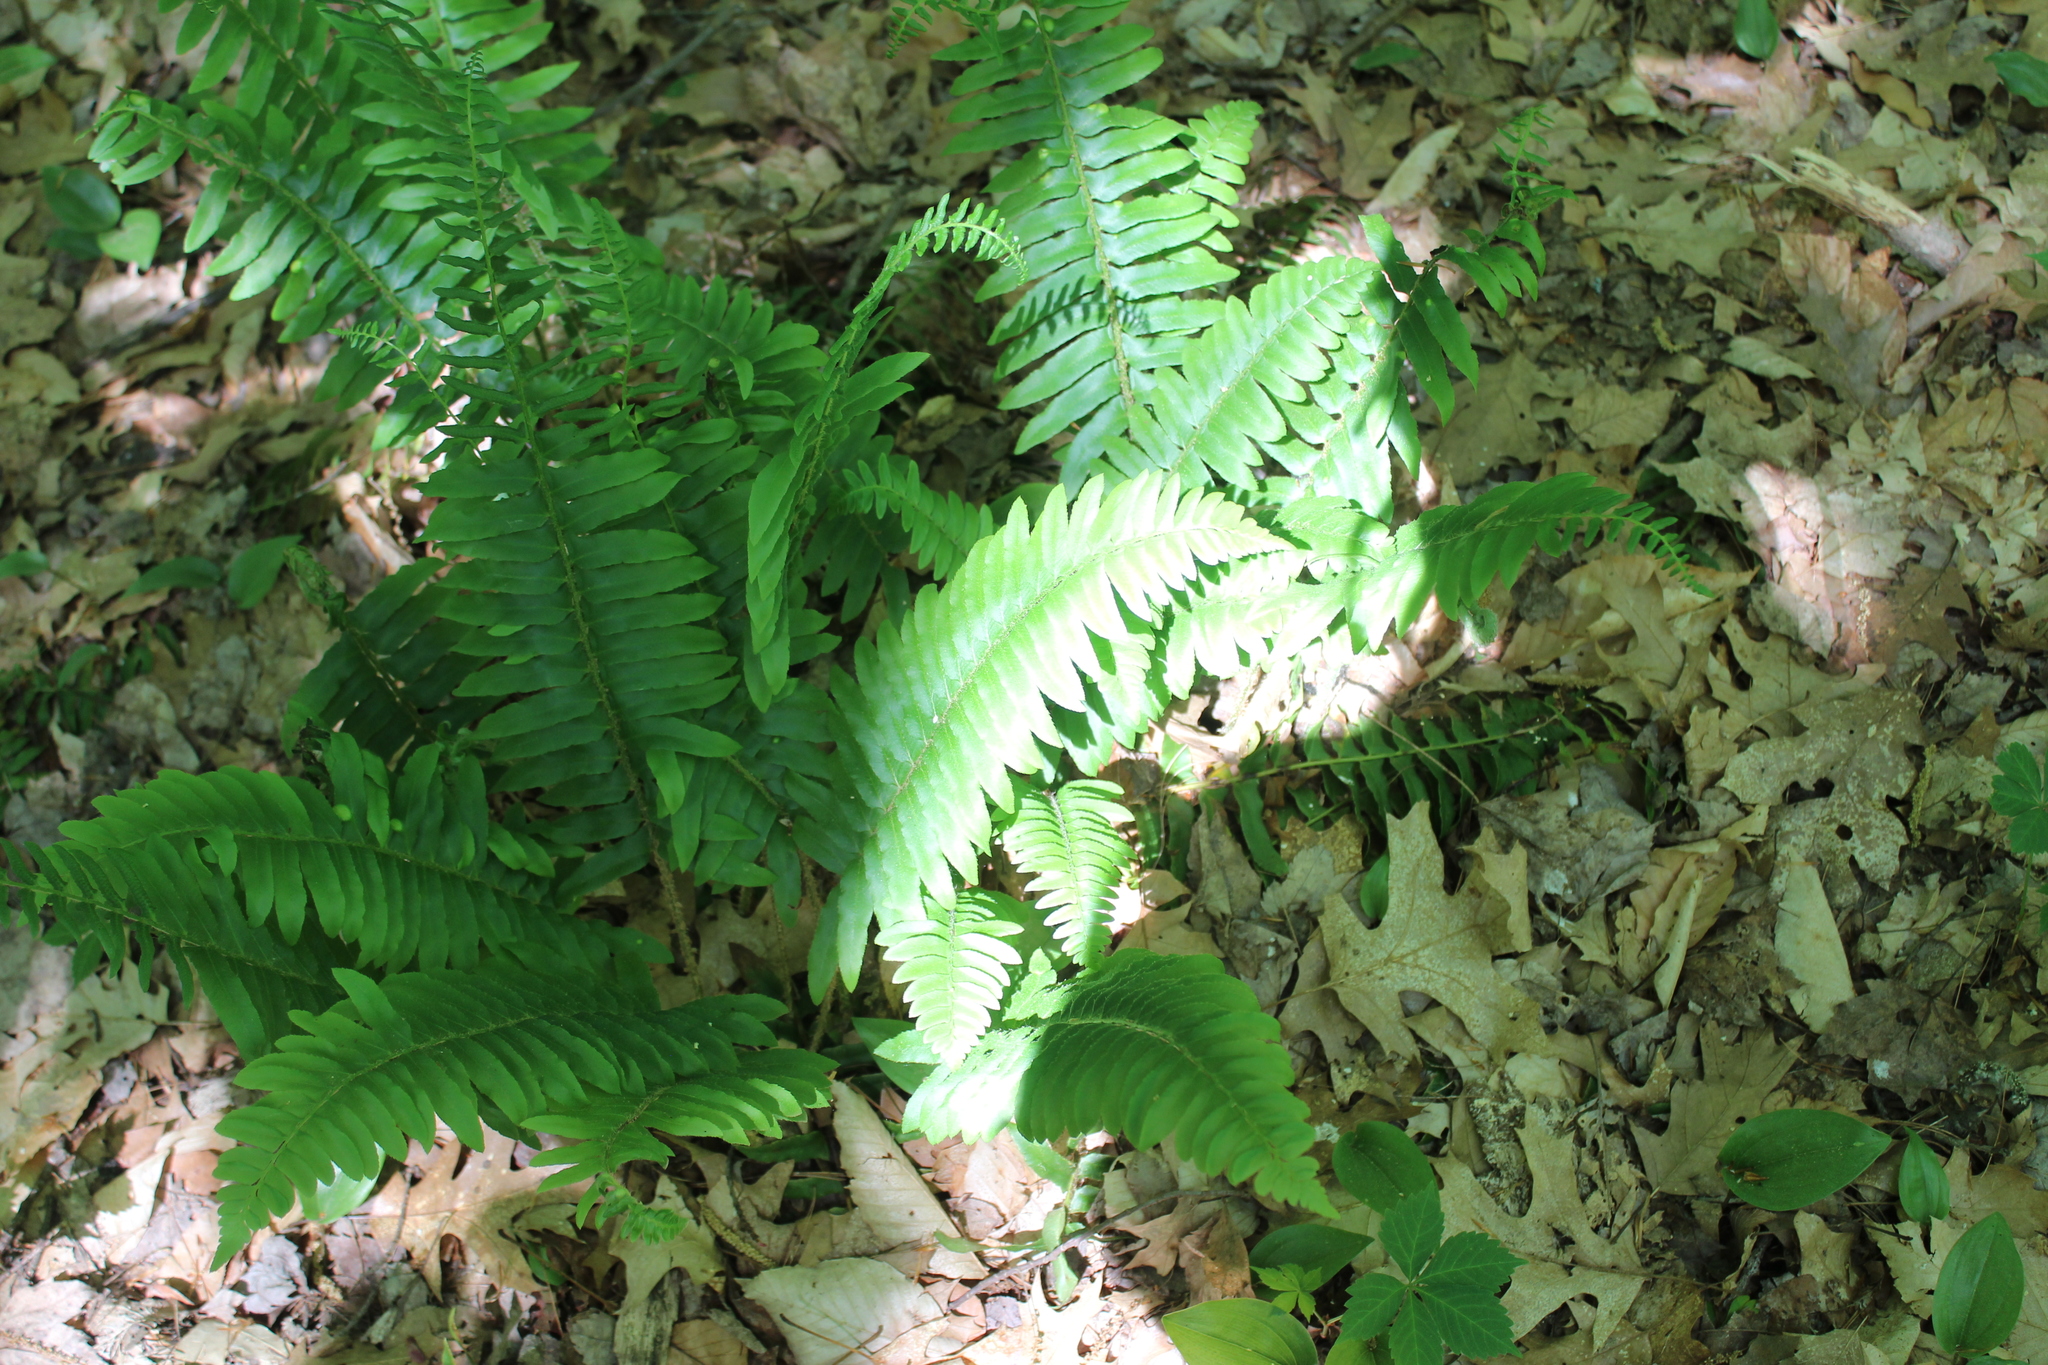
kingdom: Plantae
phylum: Tracheophyta
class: Polypodiopsida
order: Polypodiales
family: Dryopteridaceae
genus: Polystichum
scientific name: Polystichum acrostichoides
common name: Christmas fern
